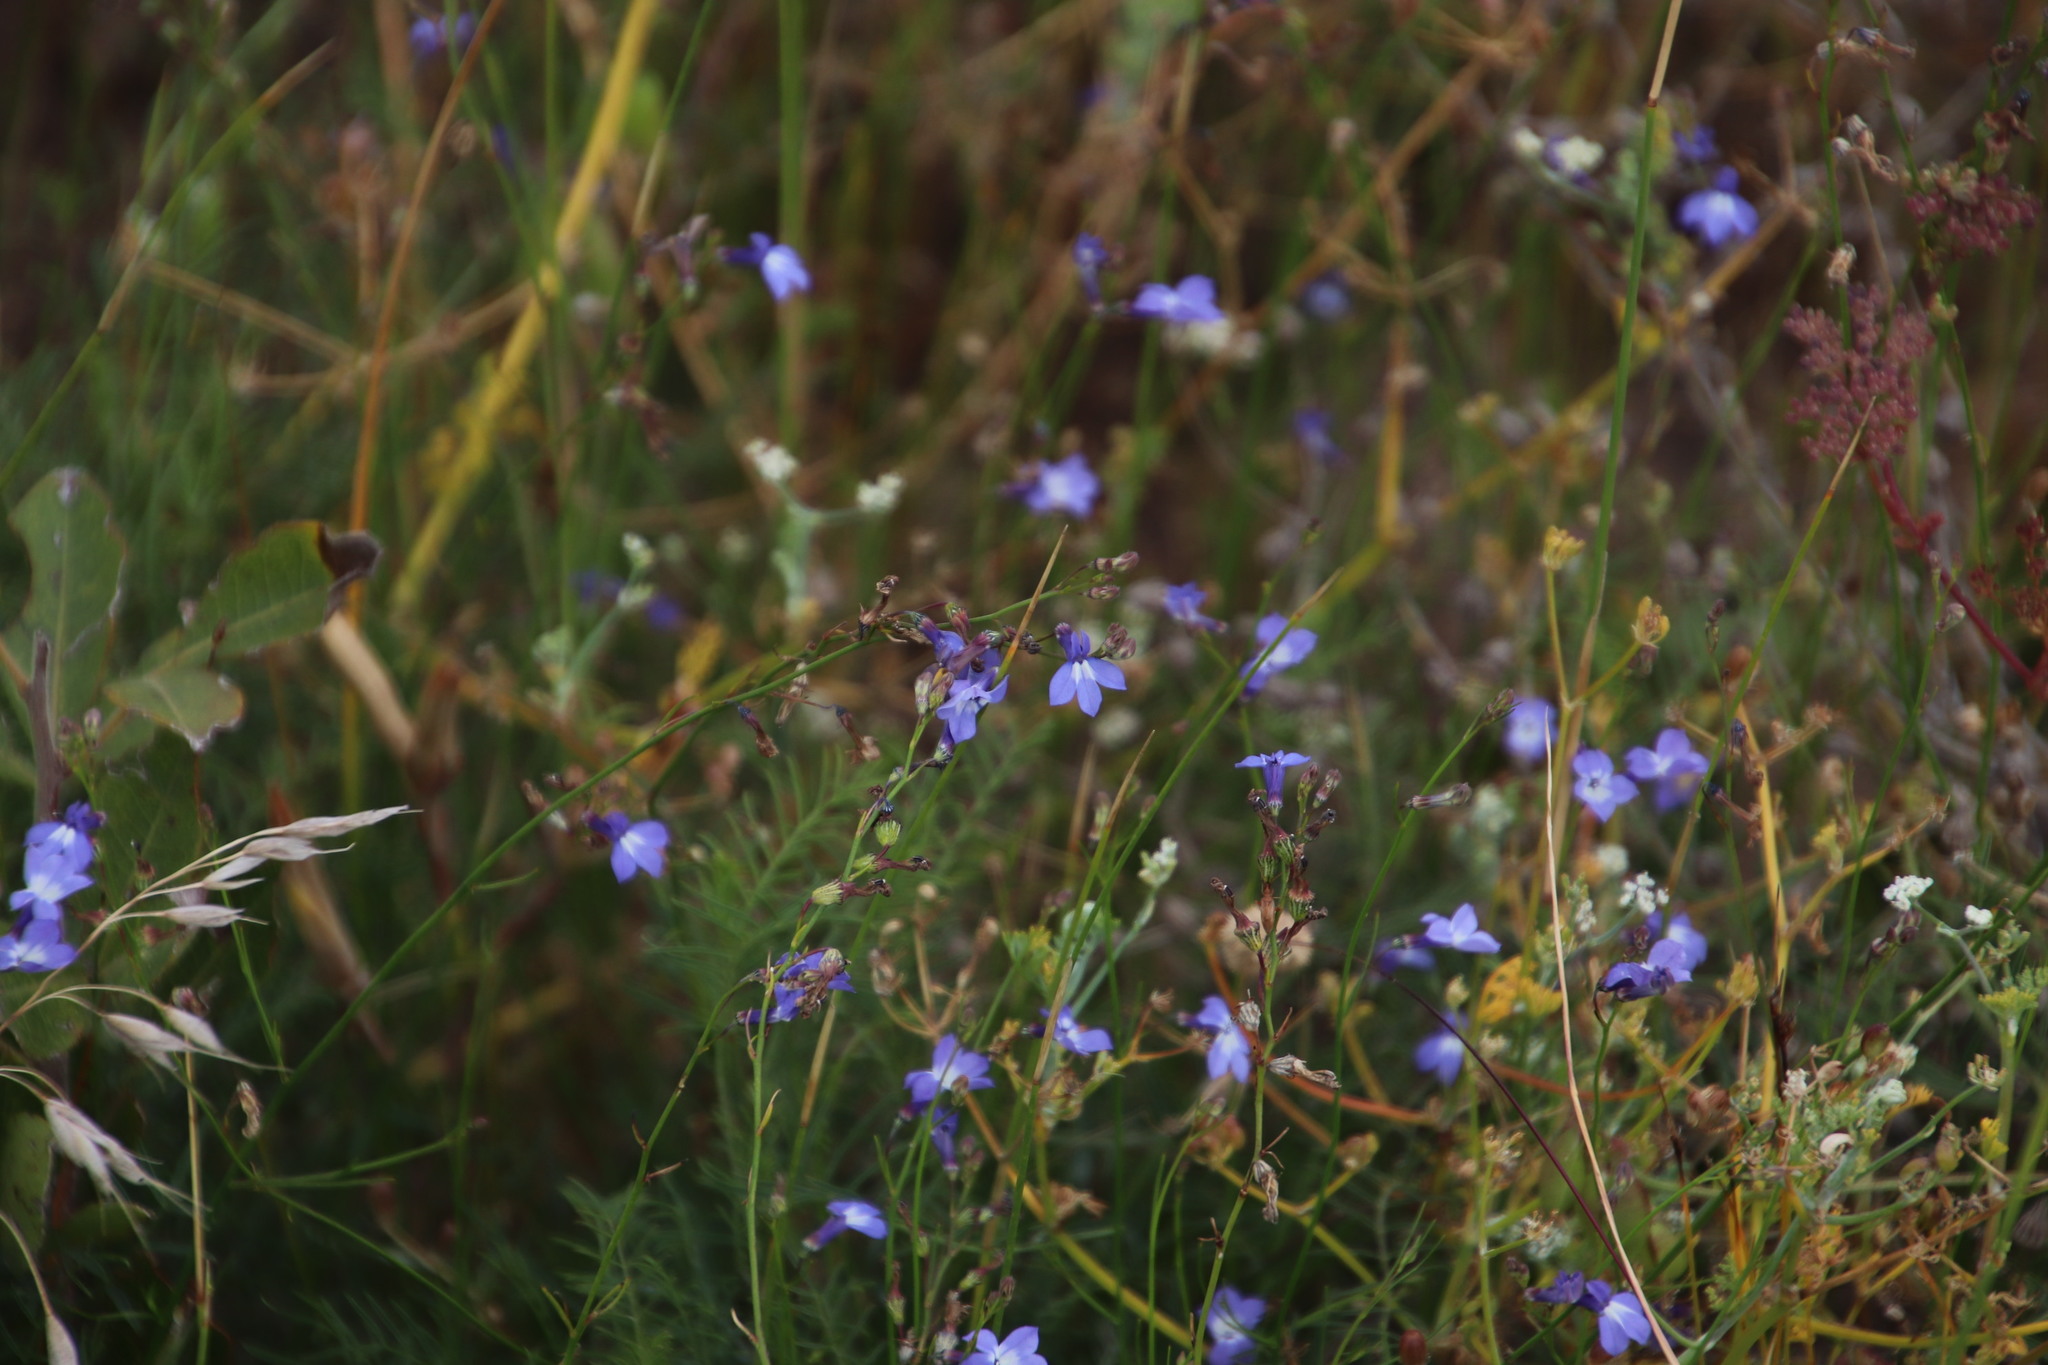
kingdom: Plantae
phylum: Tracheophyta
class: Magnoliopsida
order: Asterales
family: Campanulaceae
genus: Lobelia
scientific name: Lobelia setacea
